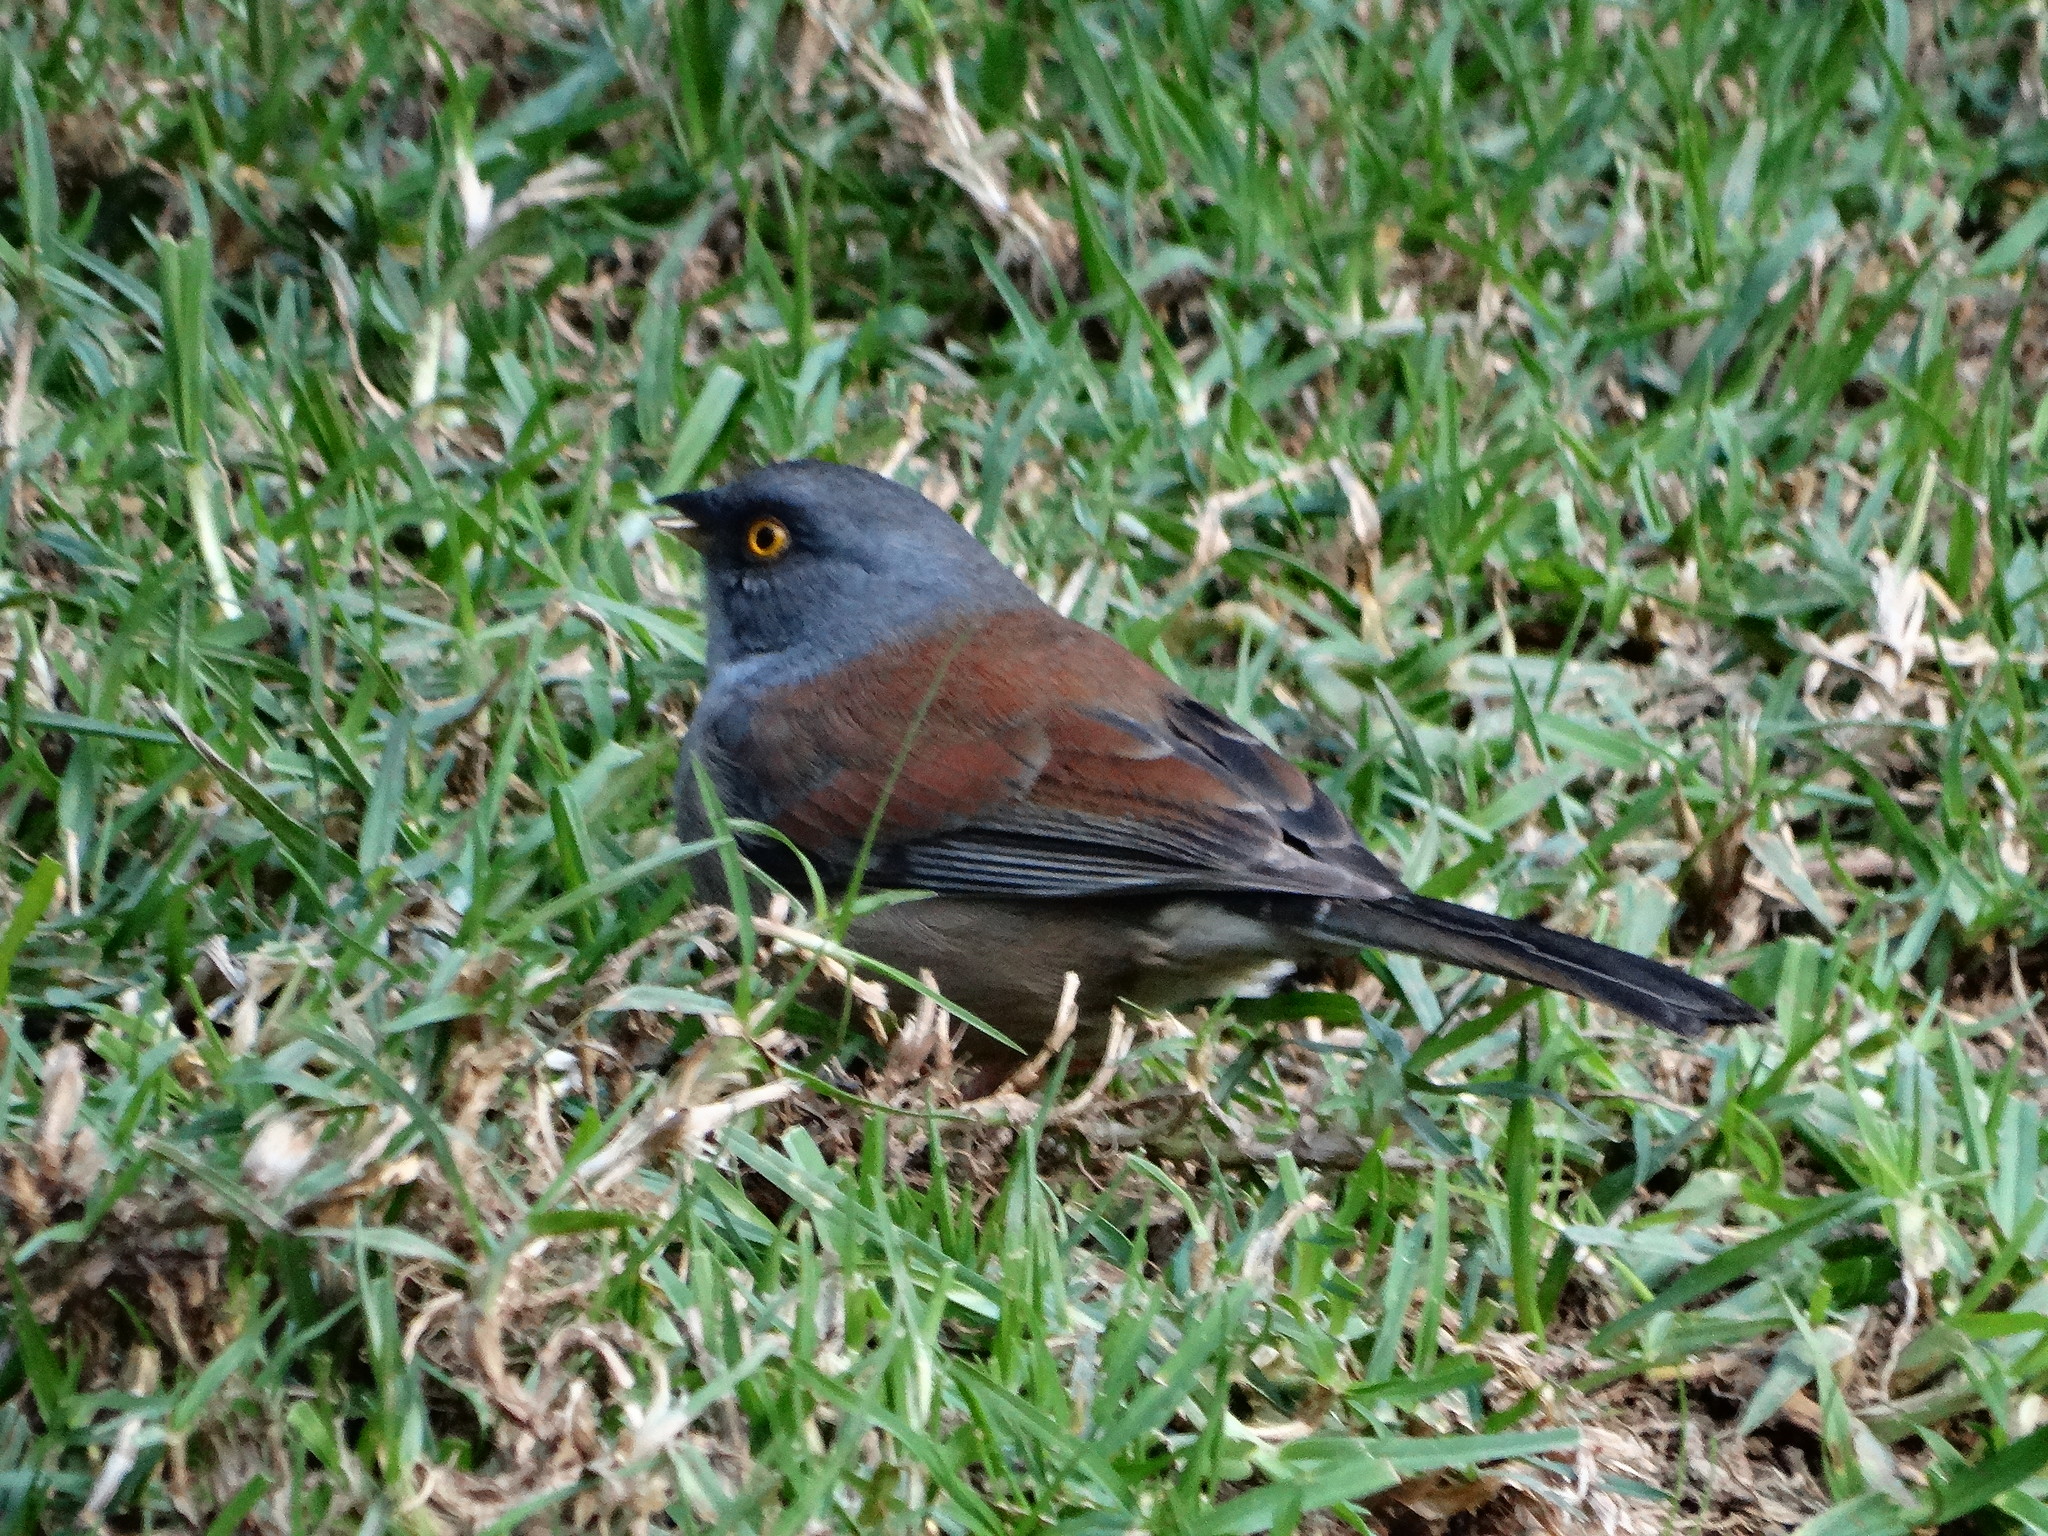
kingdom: Animalia
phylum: Chordata
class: Aves
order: Passeriformes
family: Passerellidae
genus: Junco
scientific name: Junco phaeonotus
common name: Yellow-eyed junco
